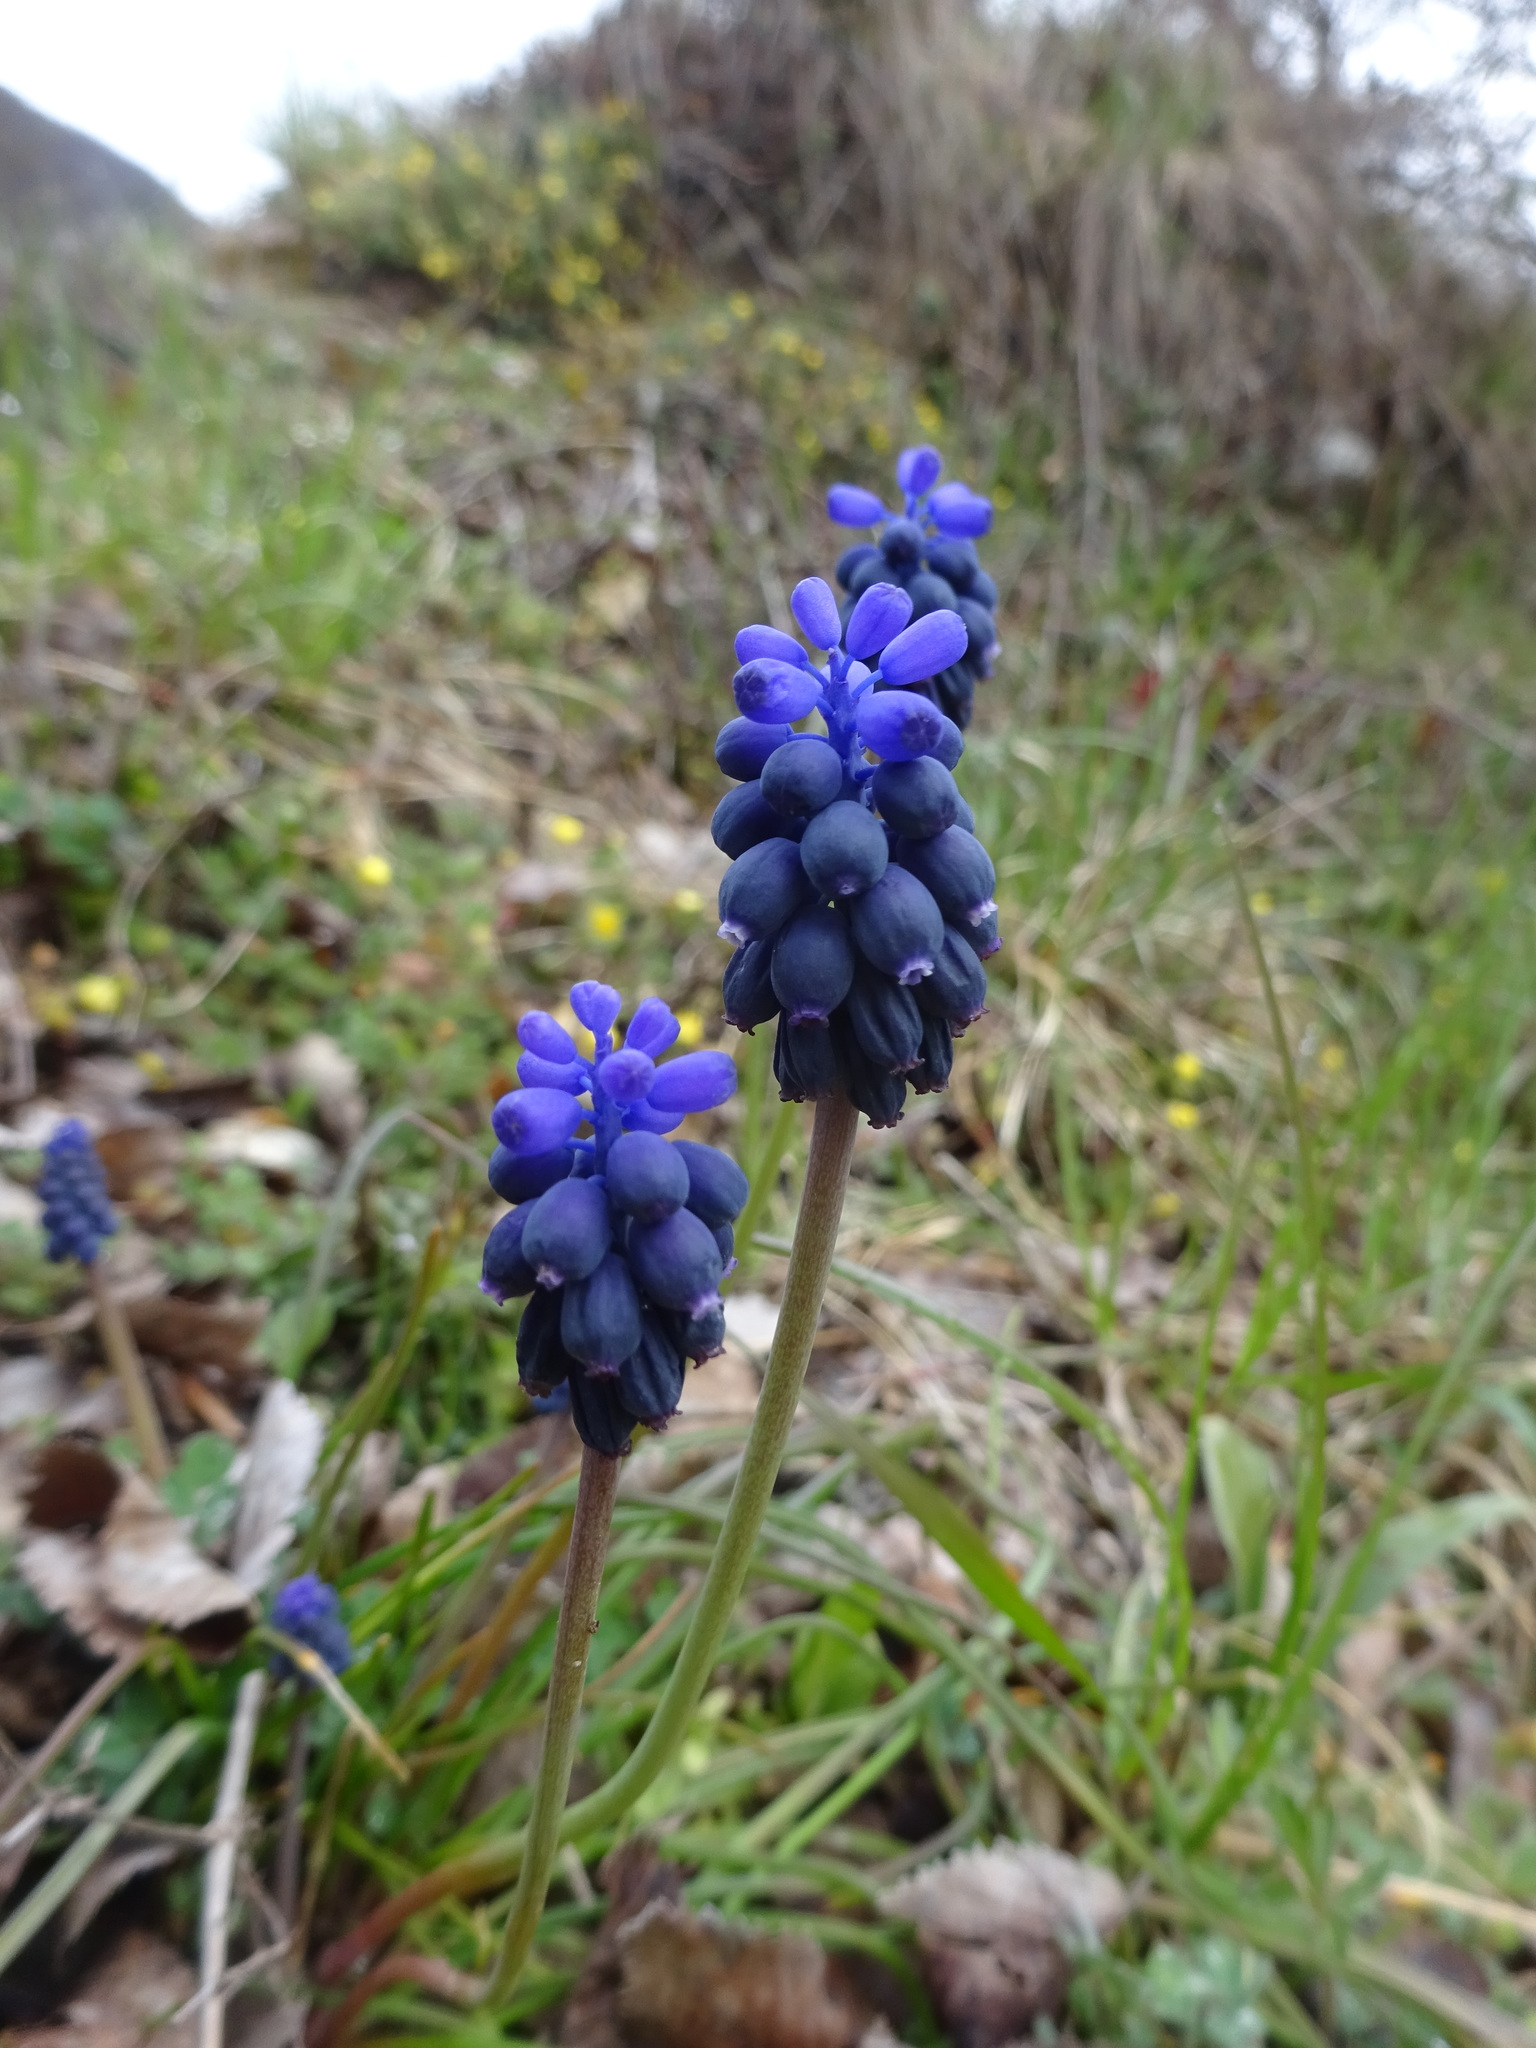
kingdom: Plantae
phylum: Tracheophyta
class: Liliopsida
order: Asparagales
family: Asparagaceae
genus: Muscari
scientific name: Muscari neglectum
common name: Grape-hyacinth
